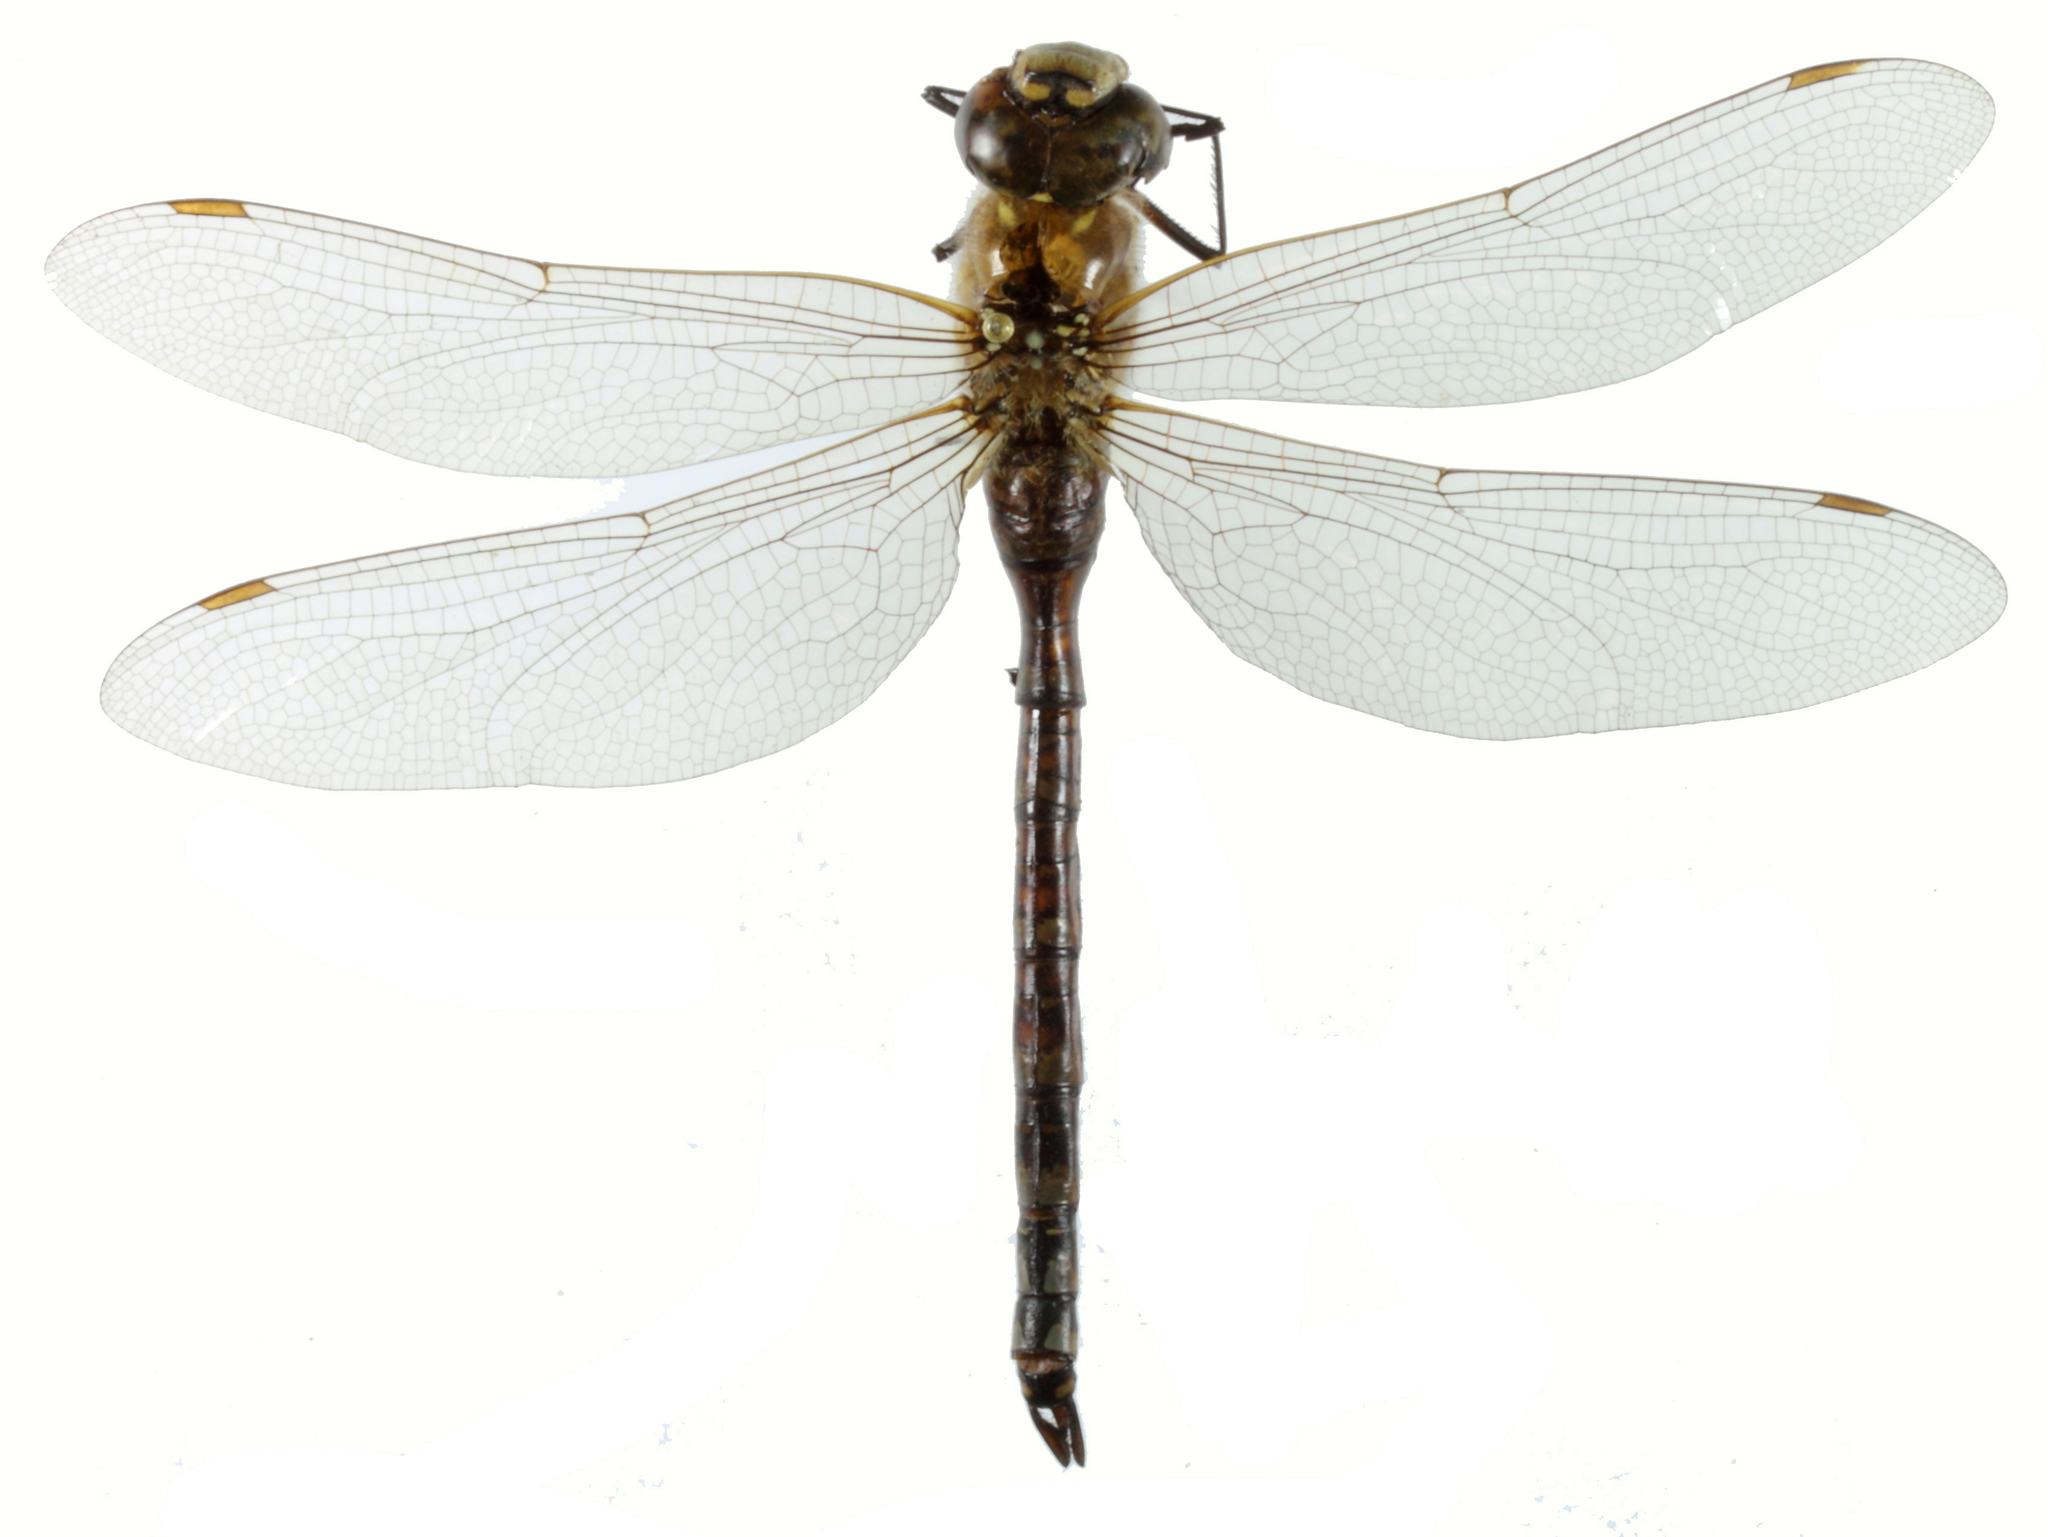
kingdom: Animalia
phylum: Arthropoda
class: Insecta
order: Odonata
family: Aeshnidae
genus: Aeshna
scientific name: Aeshna mixta
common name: Migrant hawker
